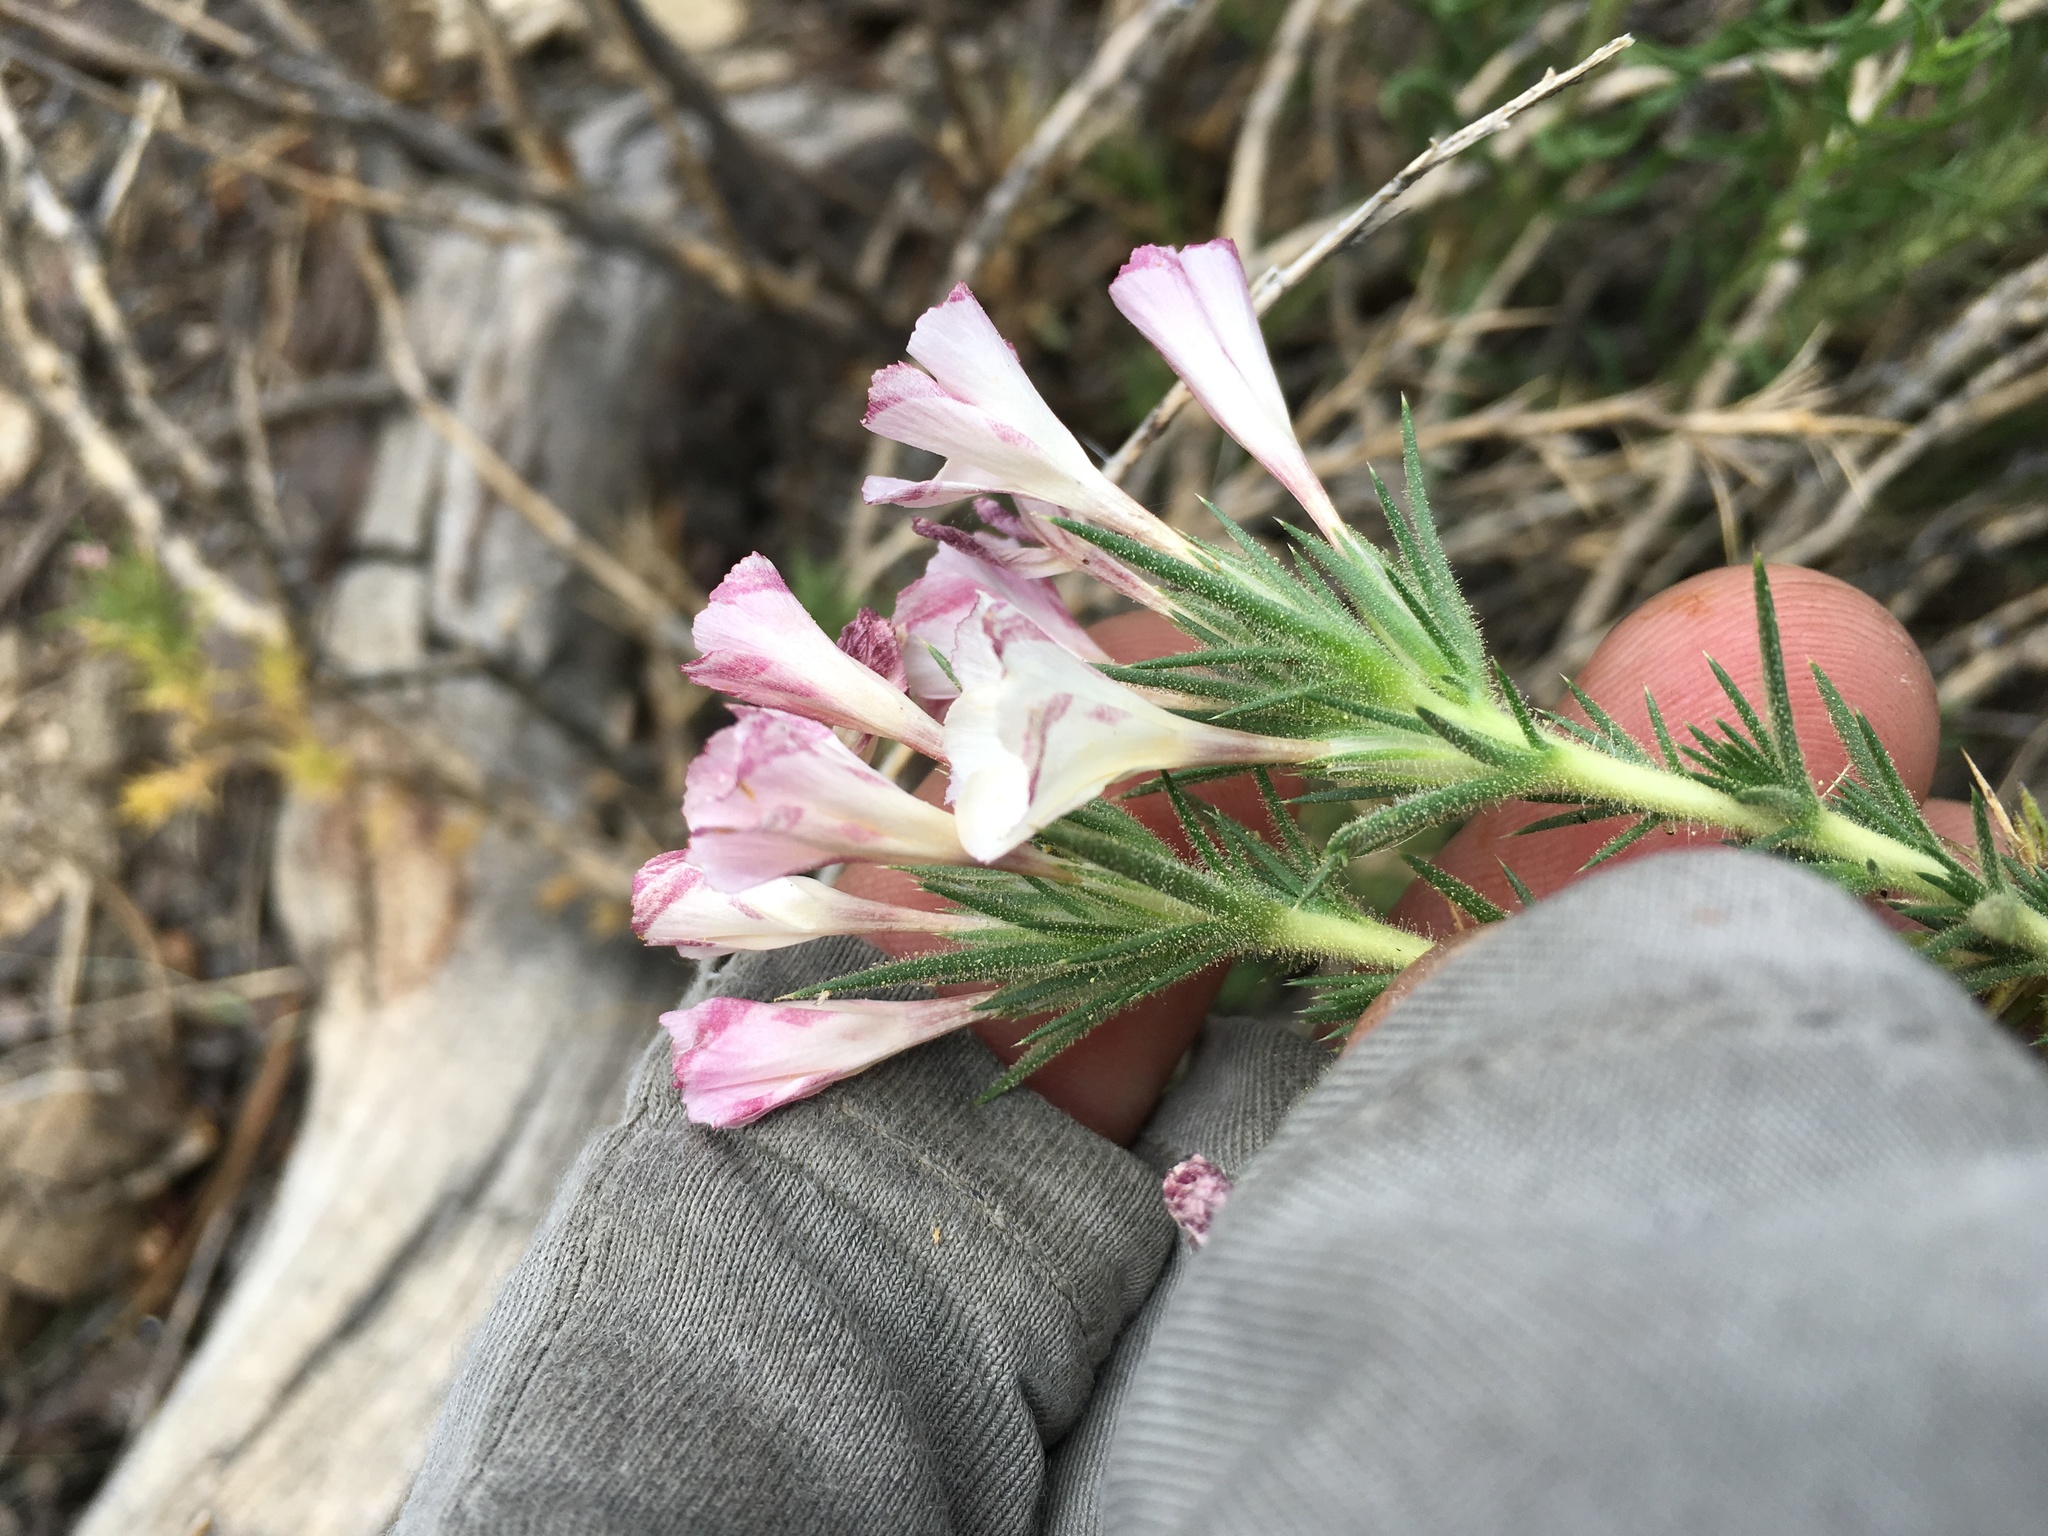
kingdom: Plantae
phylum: Tracheophyta
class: Magnoliopsida
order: Ericales
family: Polemoniaceae
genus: Linanthus
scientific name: Linanthus pungens
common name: Granite prickly phlox
